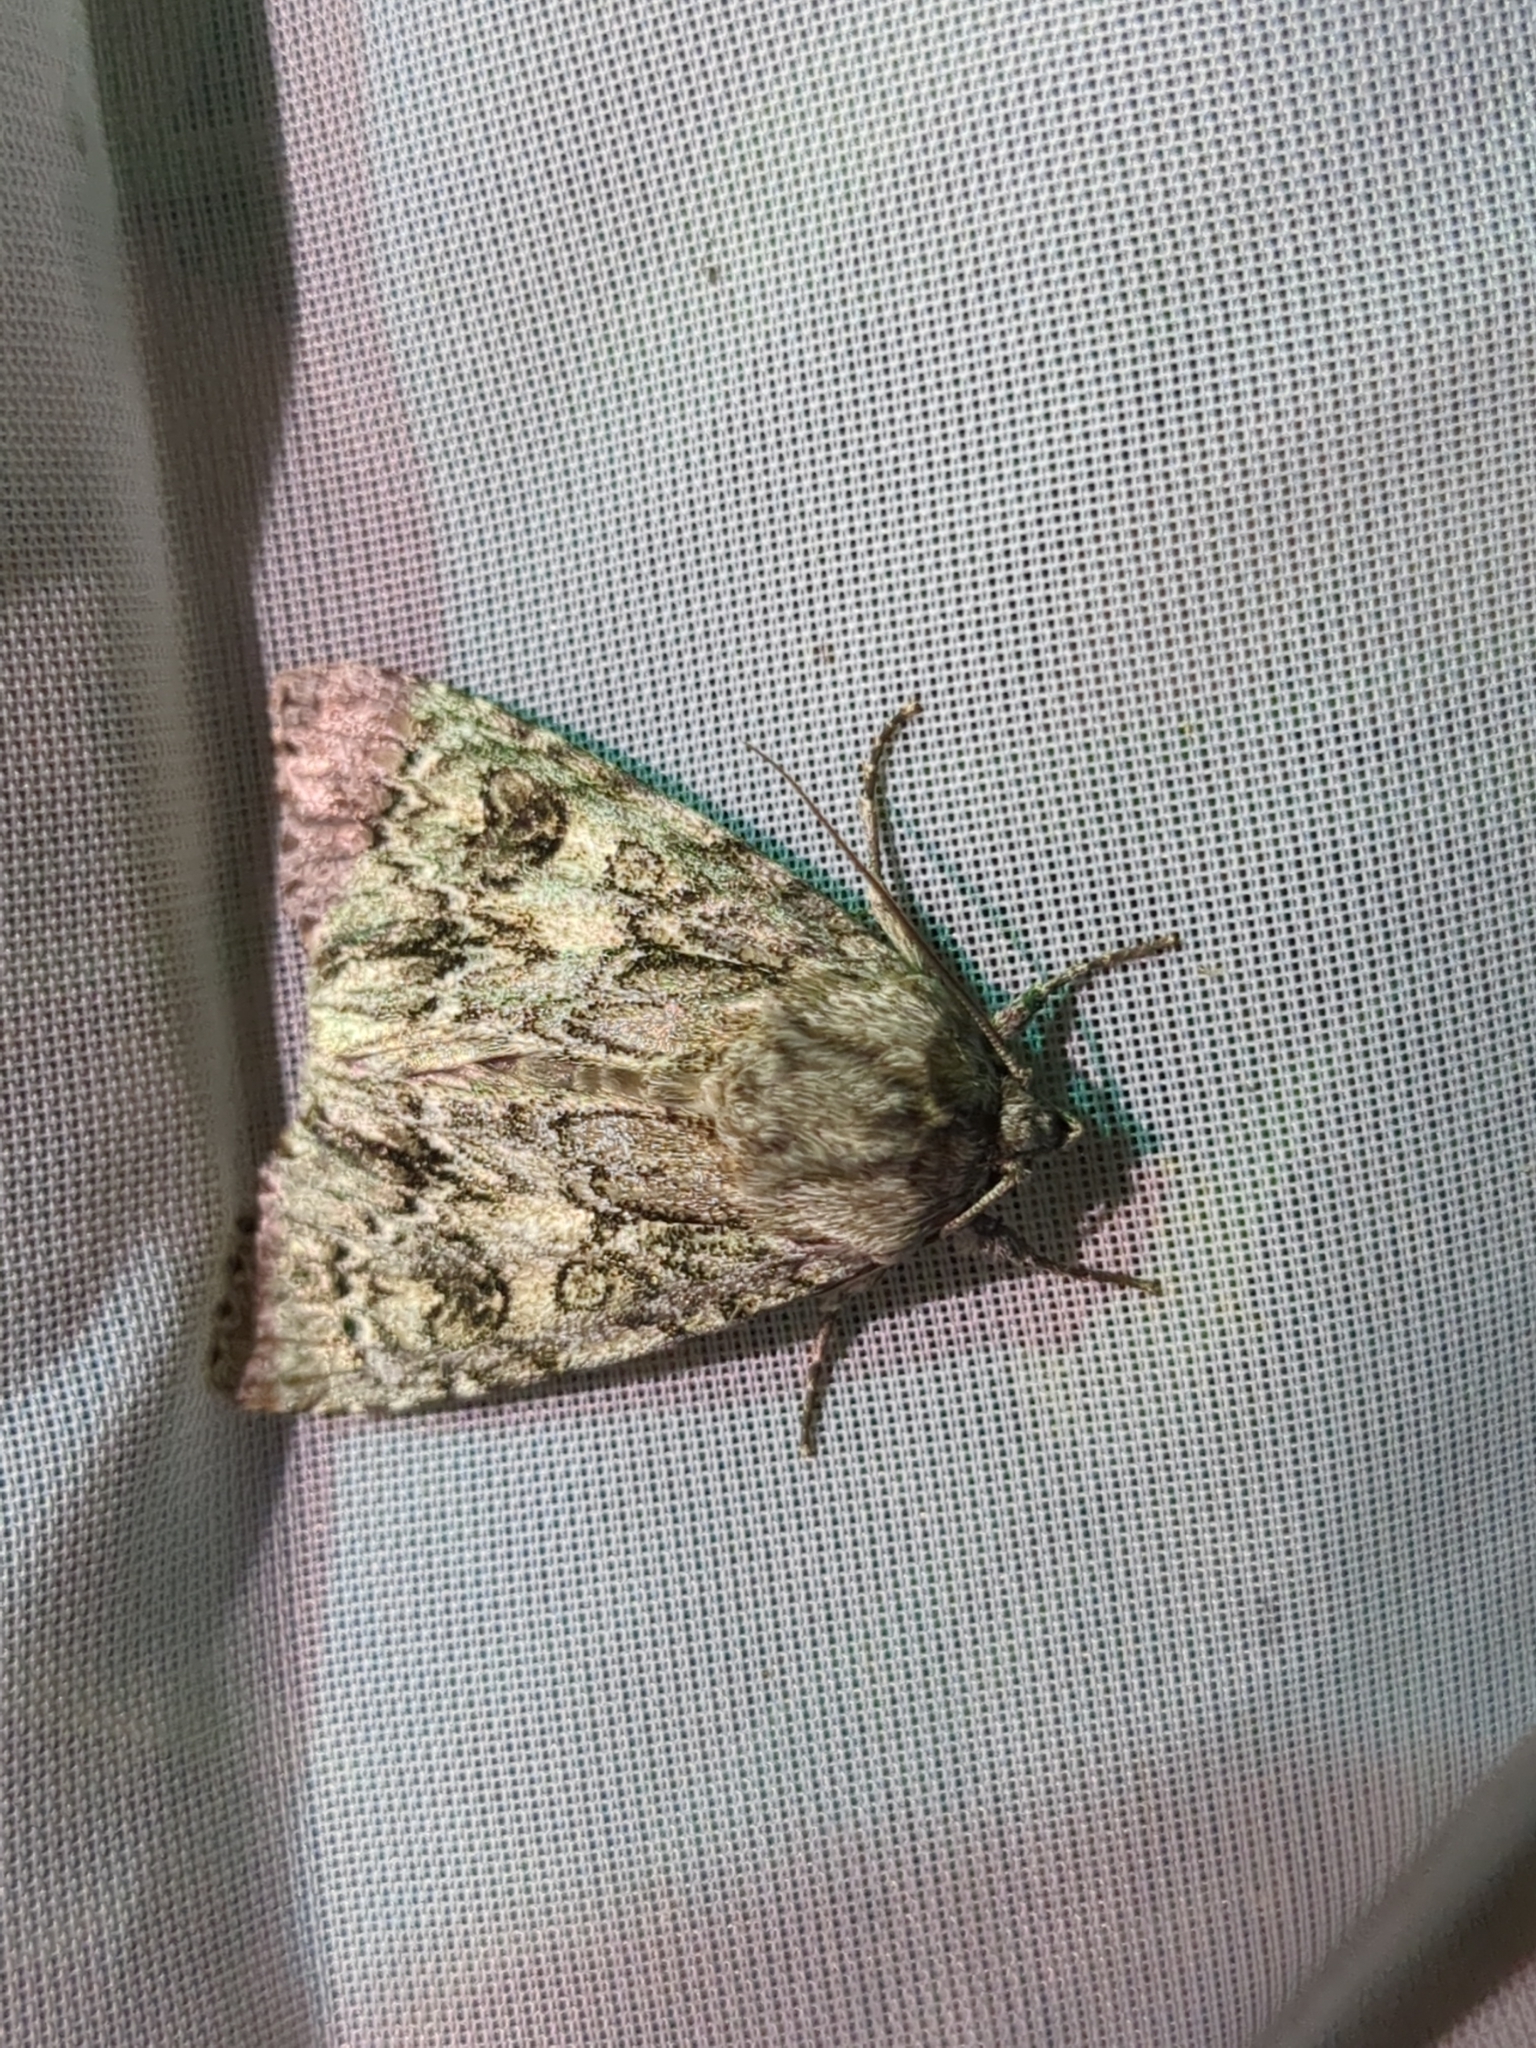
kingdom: Animalia
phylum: Arthropoda
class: Insecta
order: Lepidoptera
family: Noctuidae
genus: Acronicta
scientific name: Acronicta rubricoma
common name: Hackberry dagger
